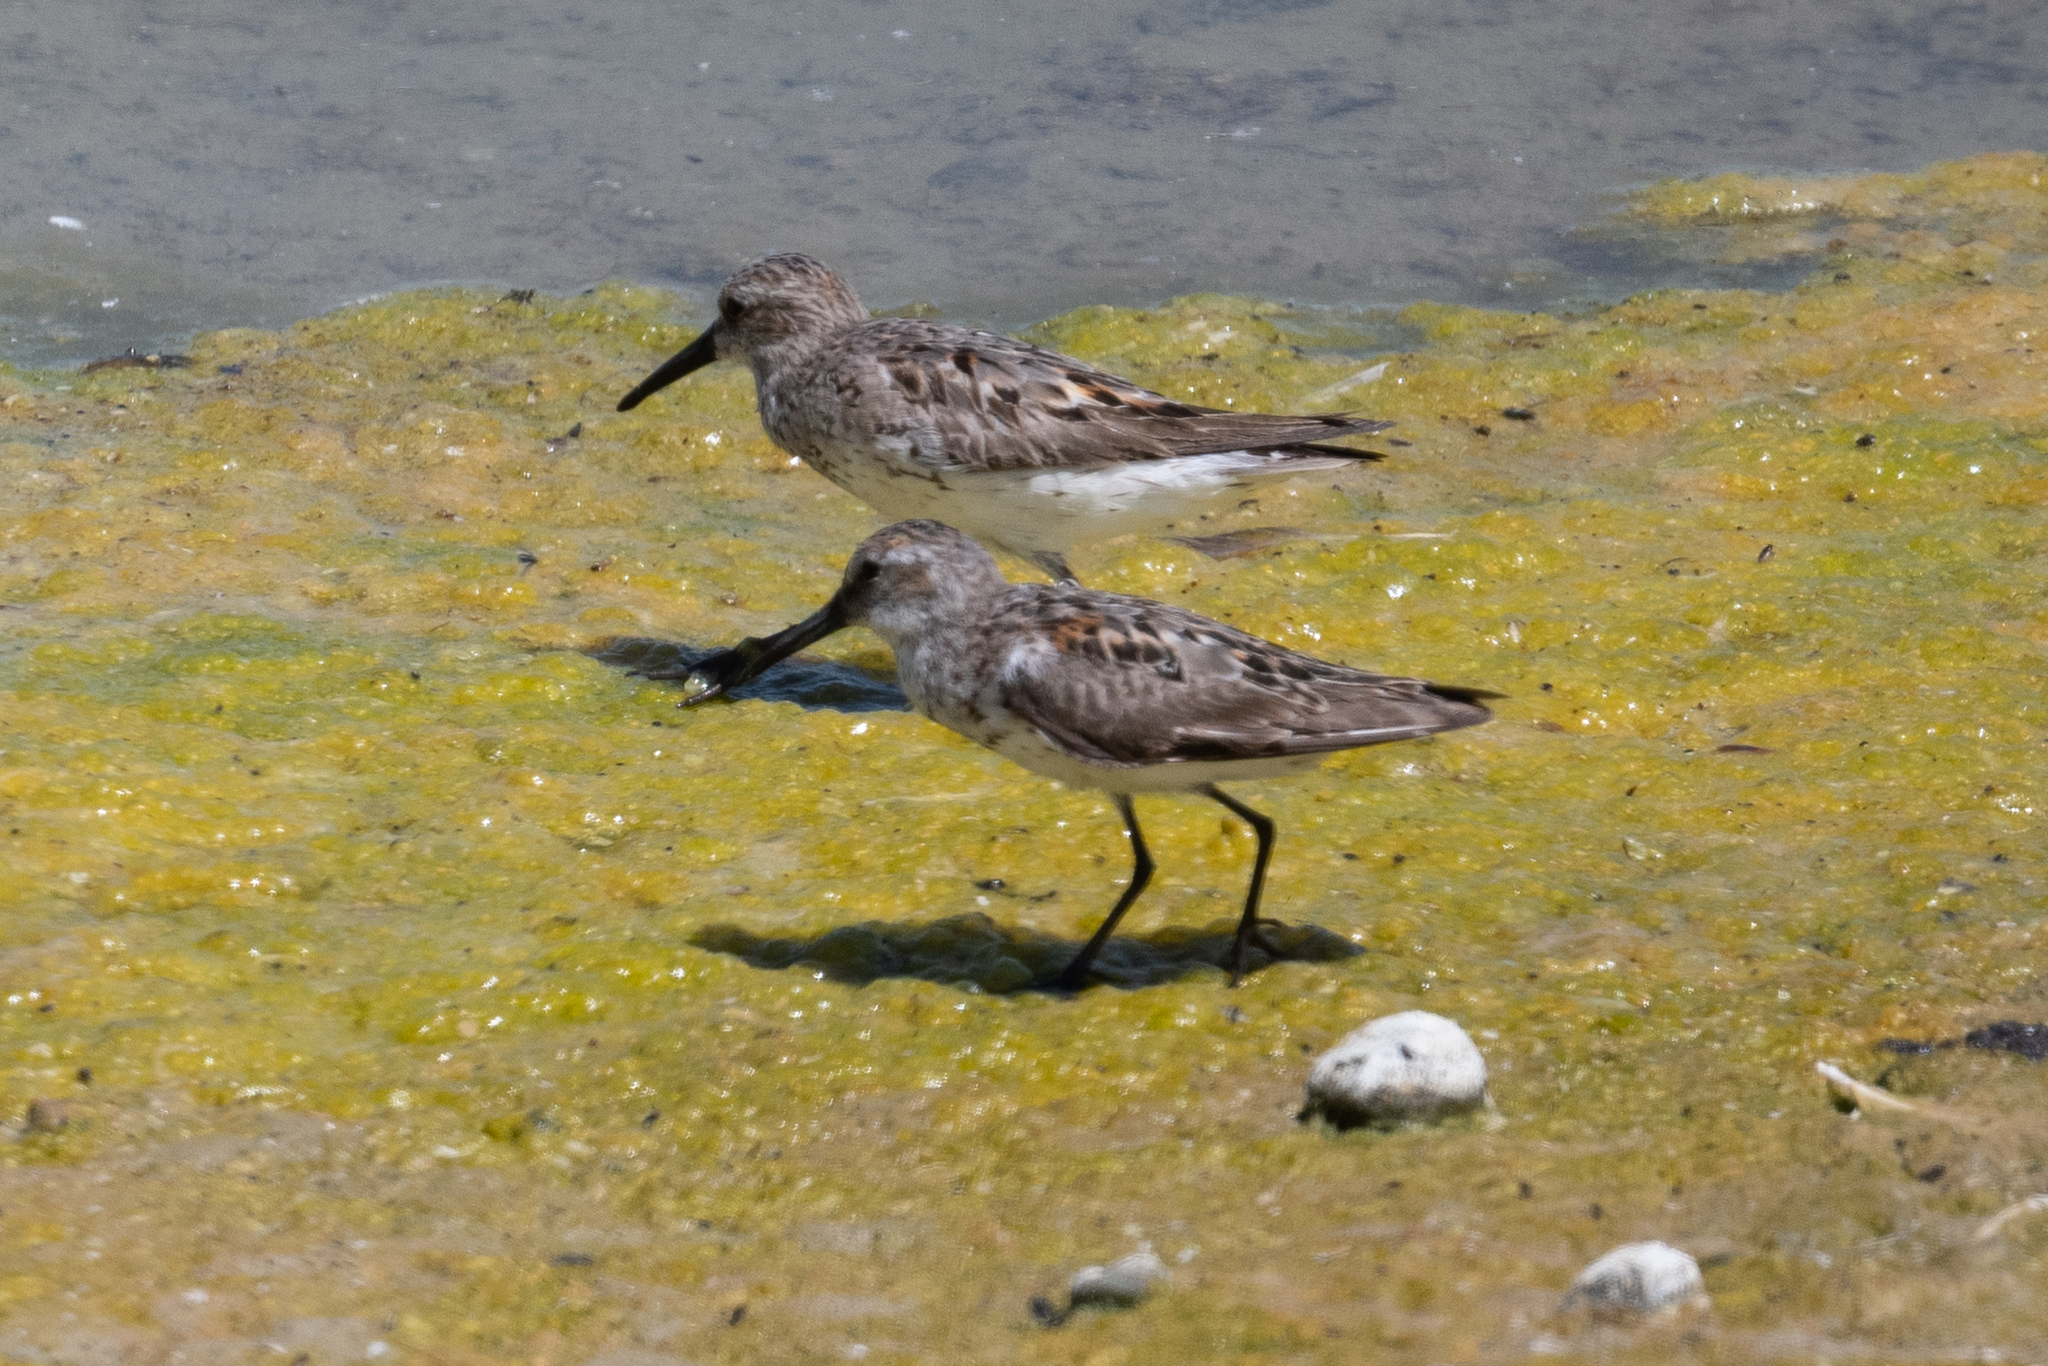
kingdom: Animalia
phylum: Chordata
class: Aves
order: Charadriiformes
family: Scolopacidae
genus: Calidris
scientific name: Calidris mauri
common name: Western sandpiper
